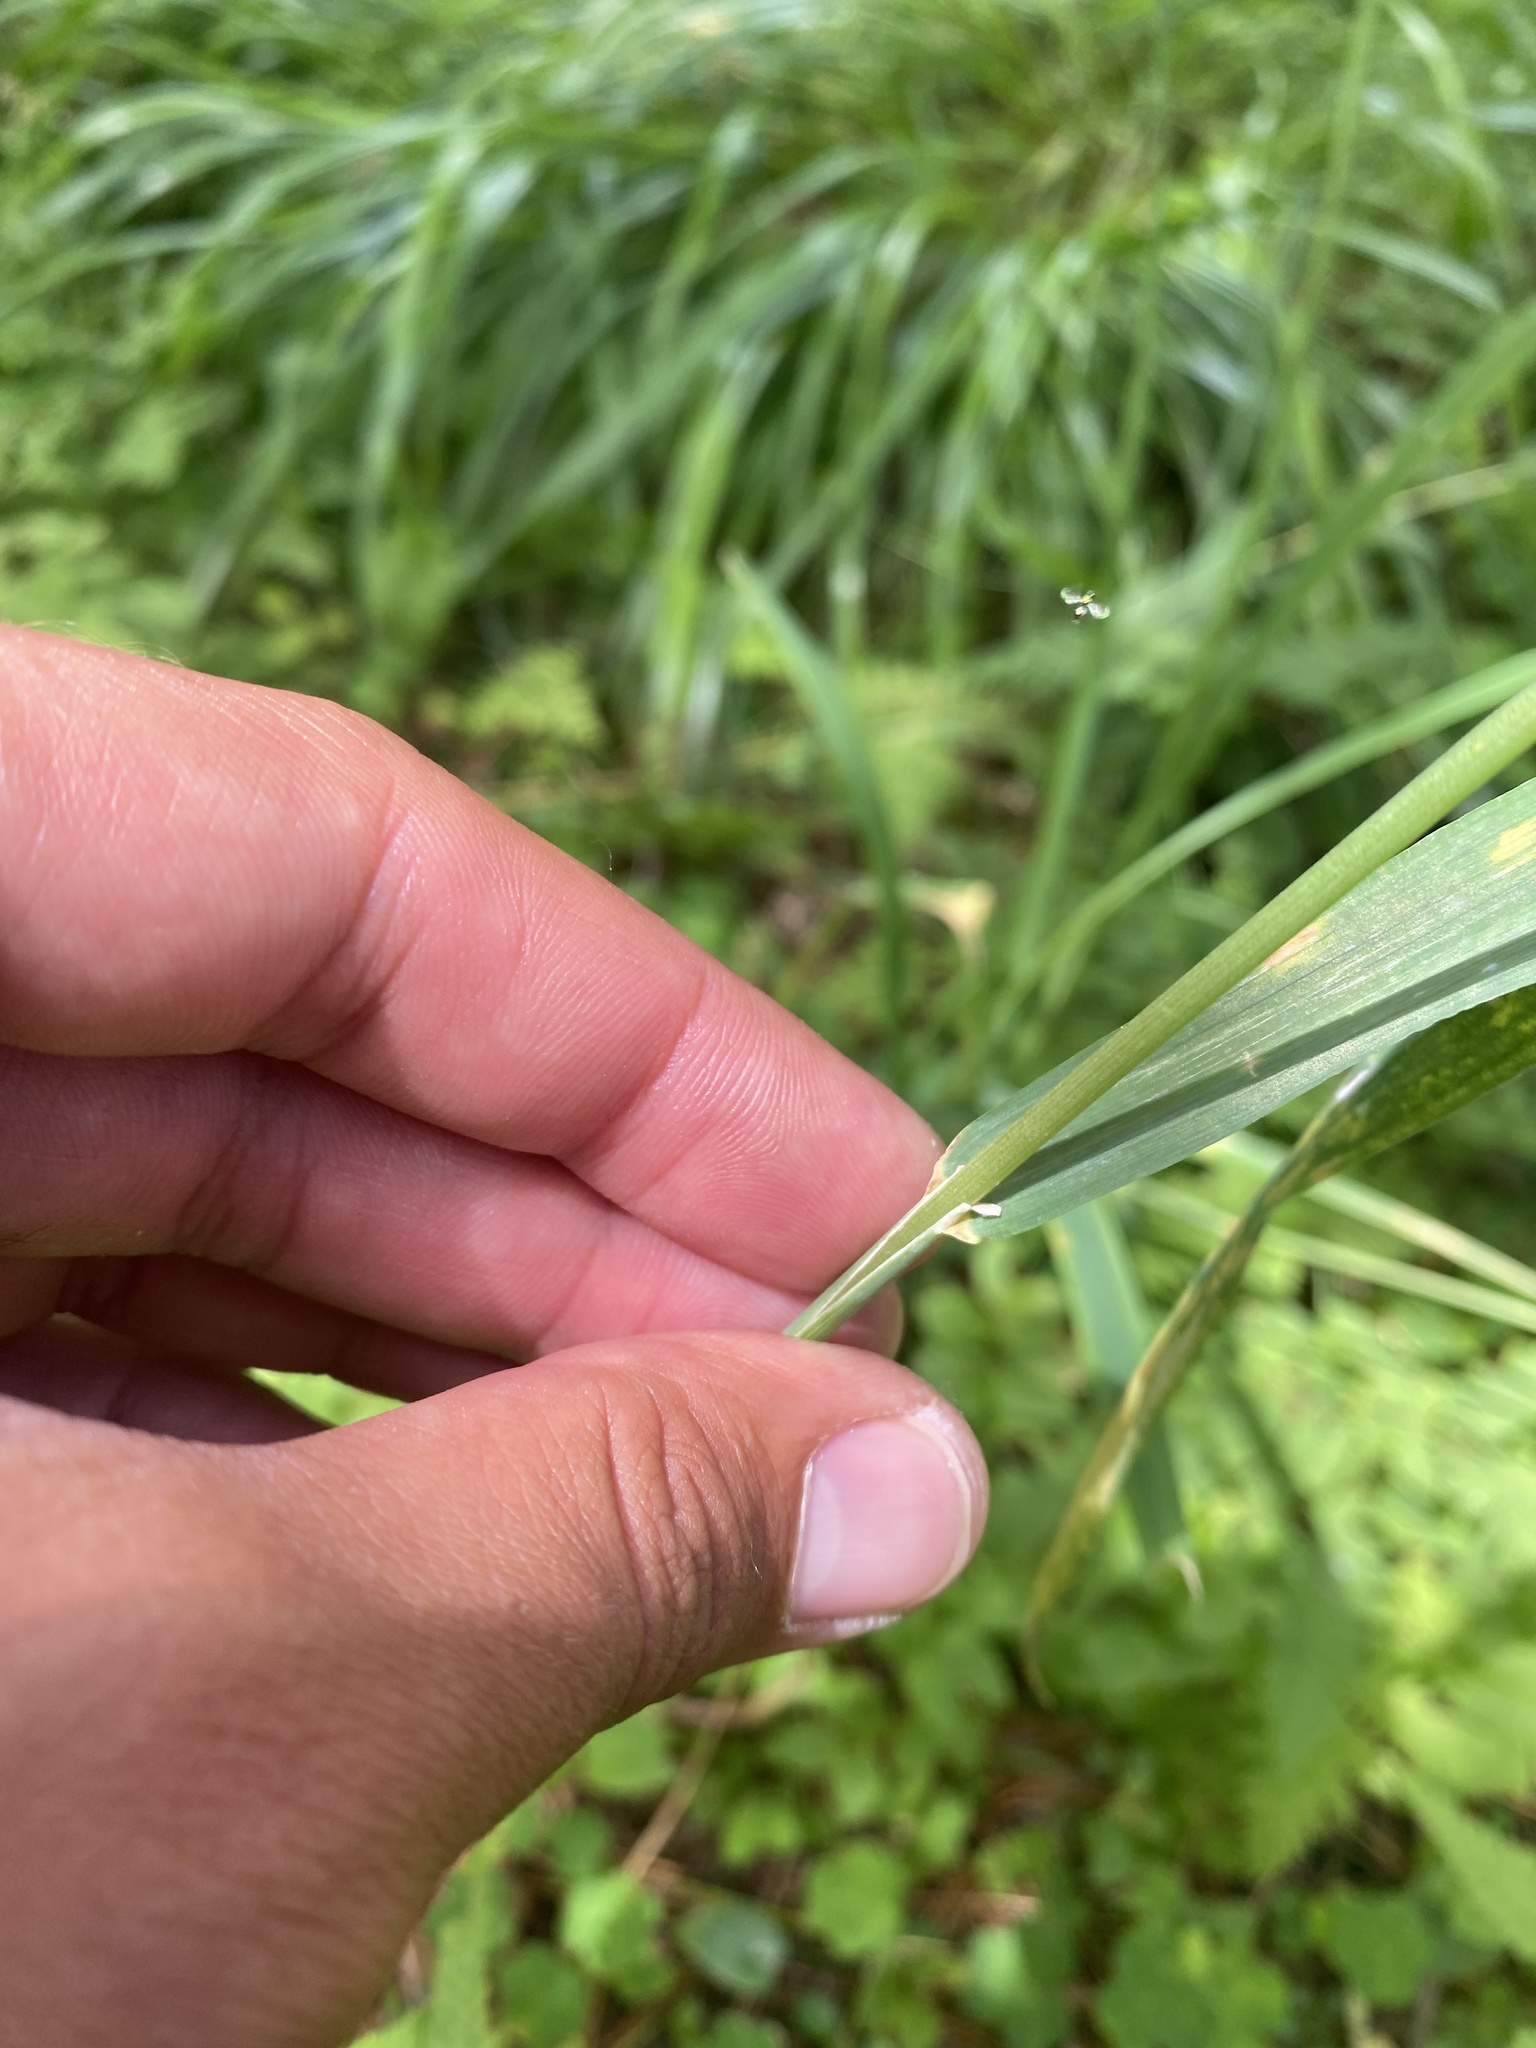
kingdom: Plantae
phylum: Tracheophyta
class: Liliopsida
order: Poales
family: Poaceae
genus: Milium
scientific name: Milium effusum
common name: Wood millet
